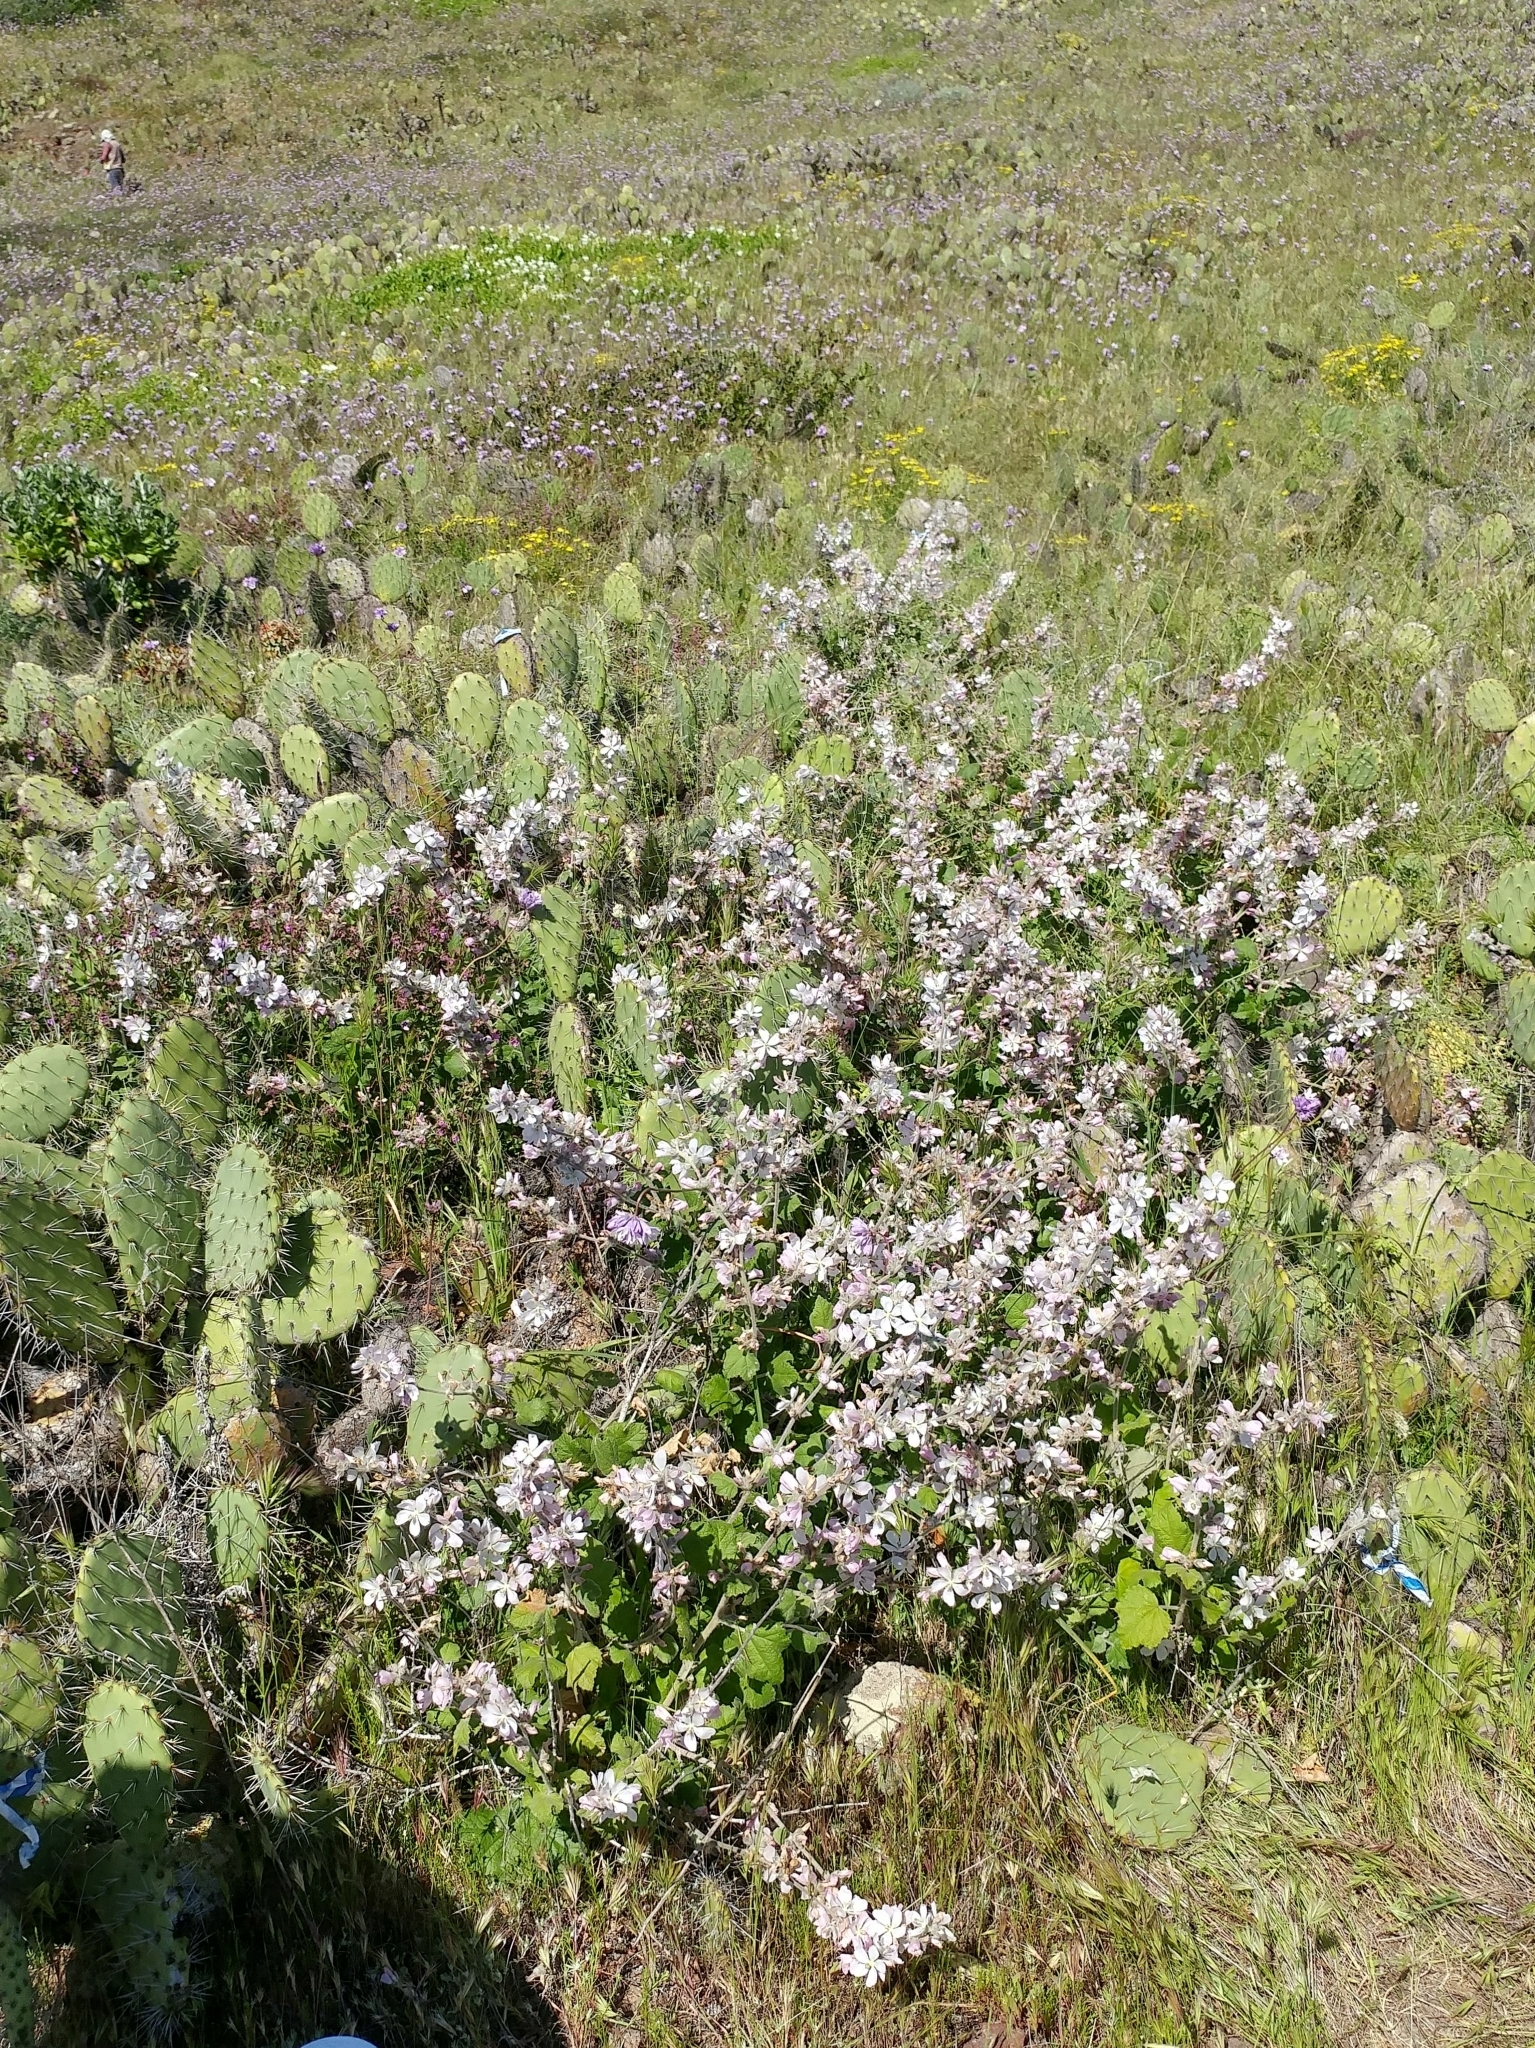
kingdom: Plantae
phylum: Tracheophyta
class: Magnoliopsida
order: Malvales
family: Malvaceae
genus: Malacothamnus
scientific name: Malacothamnus clementinus
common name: San clemente island bush-mallow
